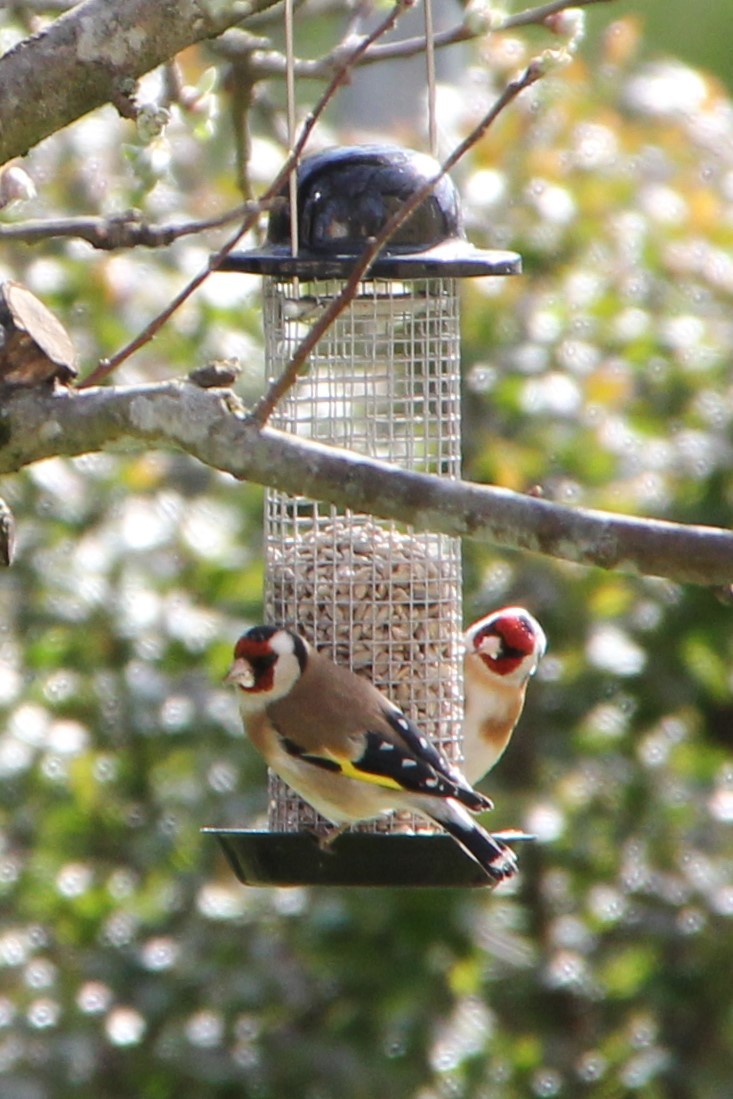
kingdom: Animalia
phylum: Chordata
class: Aves
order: Passeriformes
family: Fringillidae
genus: Carduelis
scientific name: Carduelis carduelis
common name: European goldfinch
